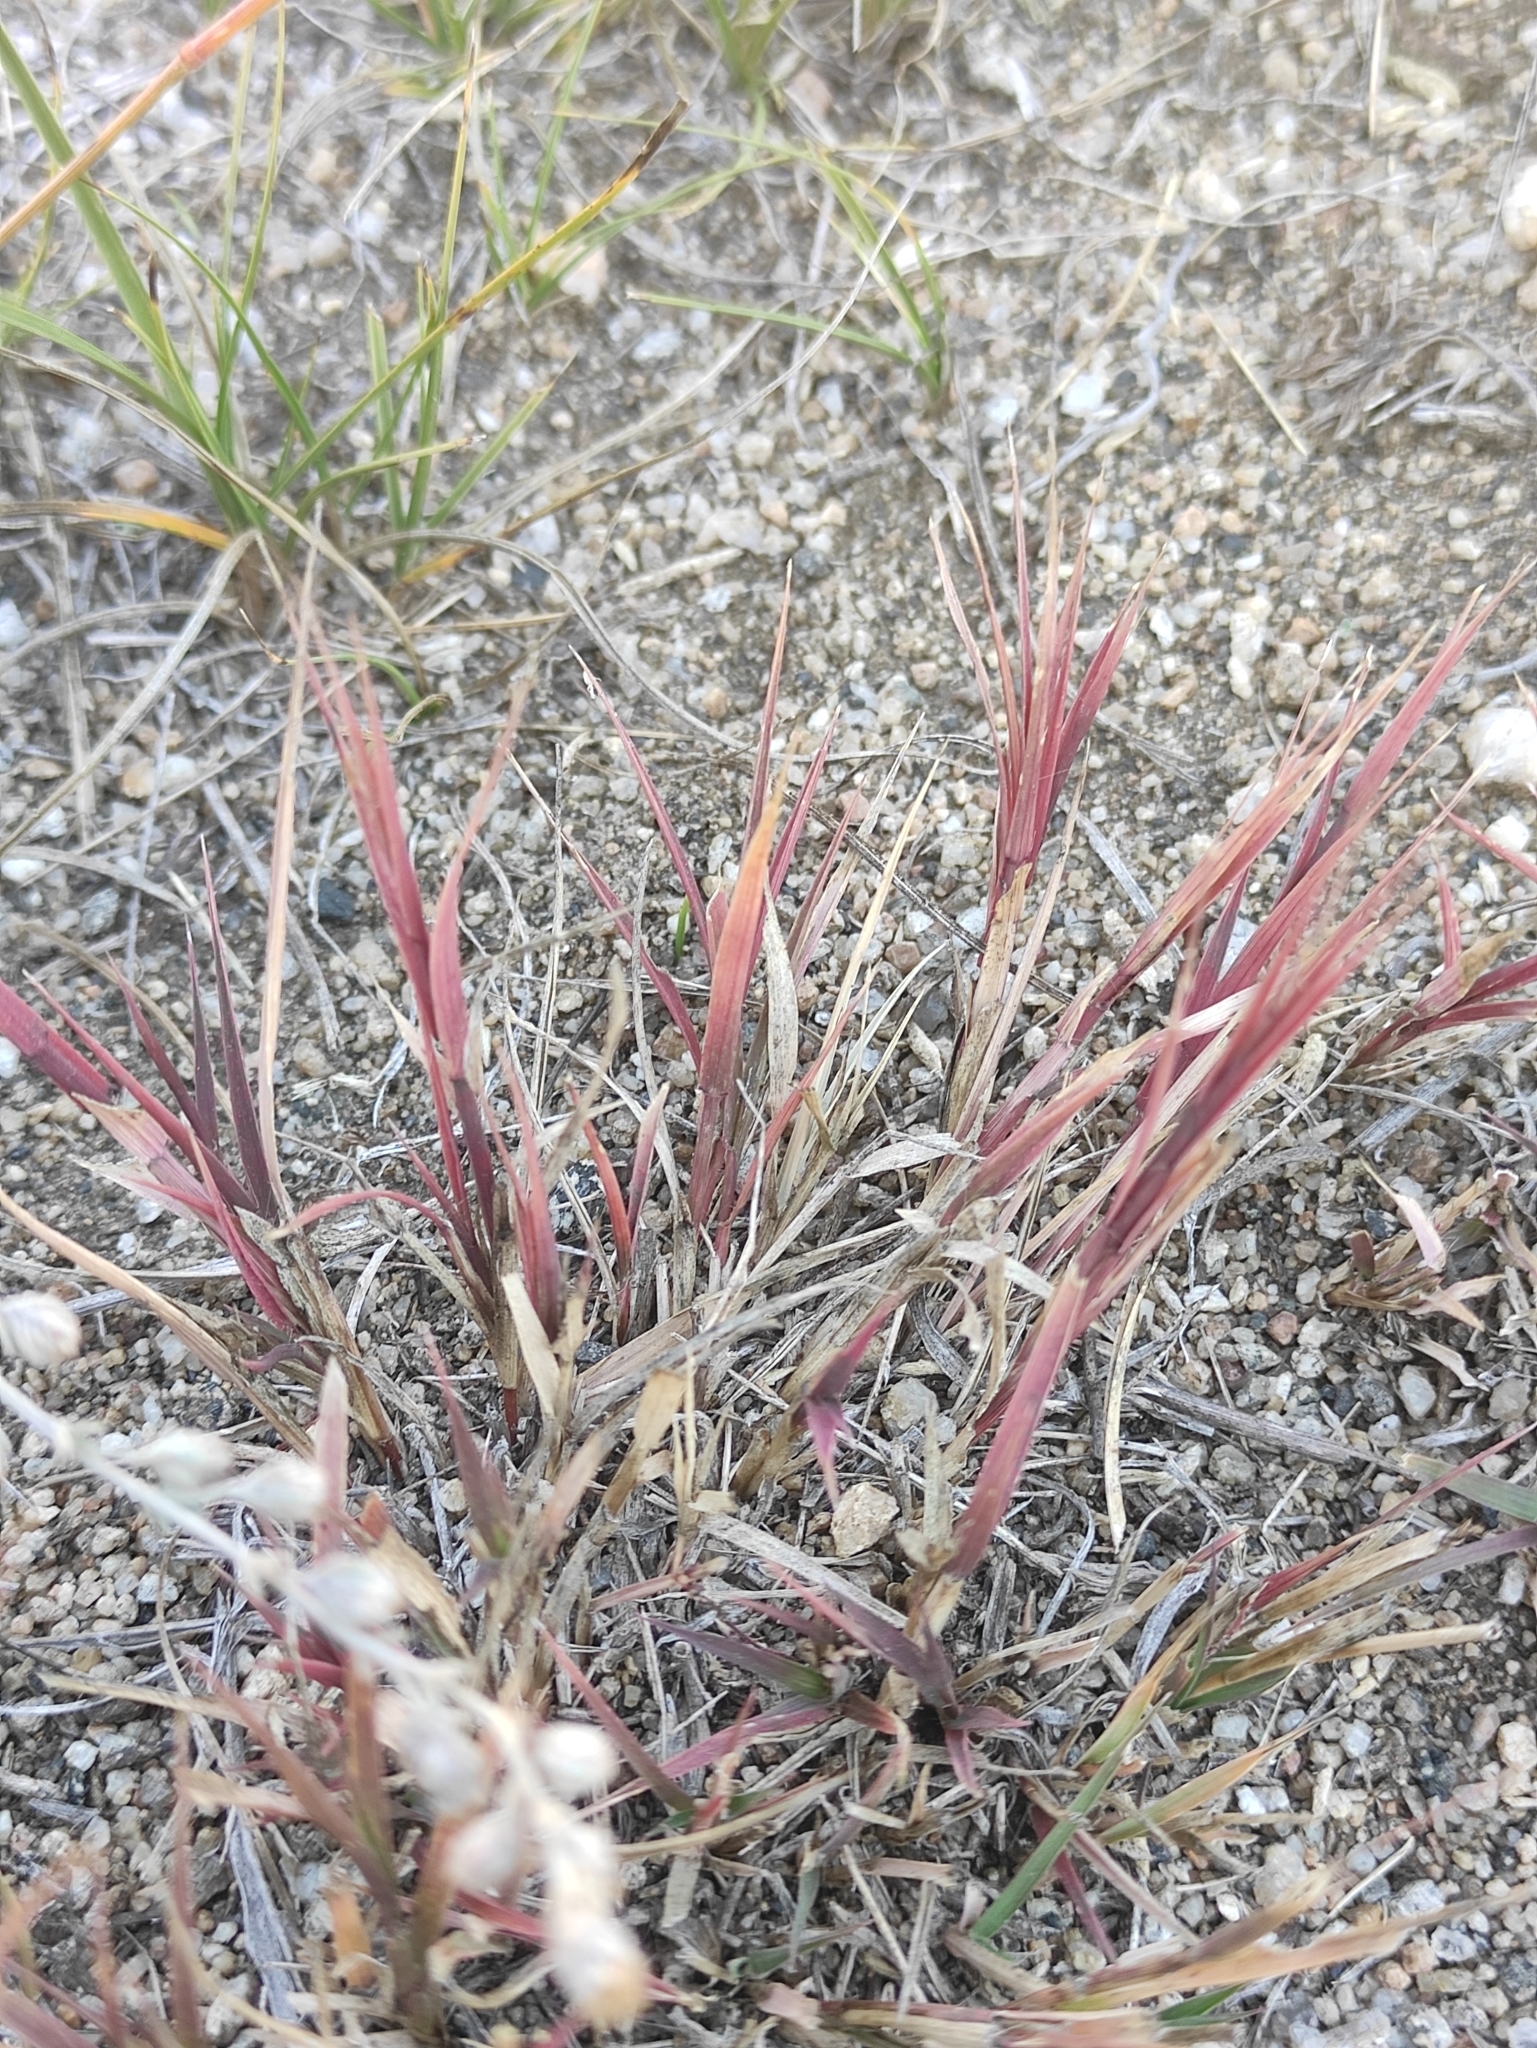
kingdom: Plantae
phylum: Tracheophyta
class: Liliopsida
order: Poales
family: Poaceae
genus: Cleistogenes
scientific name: Cleistogenes squarrosa
